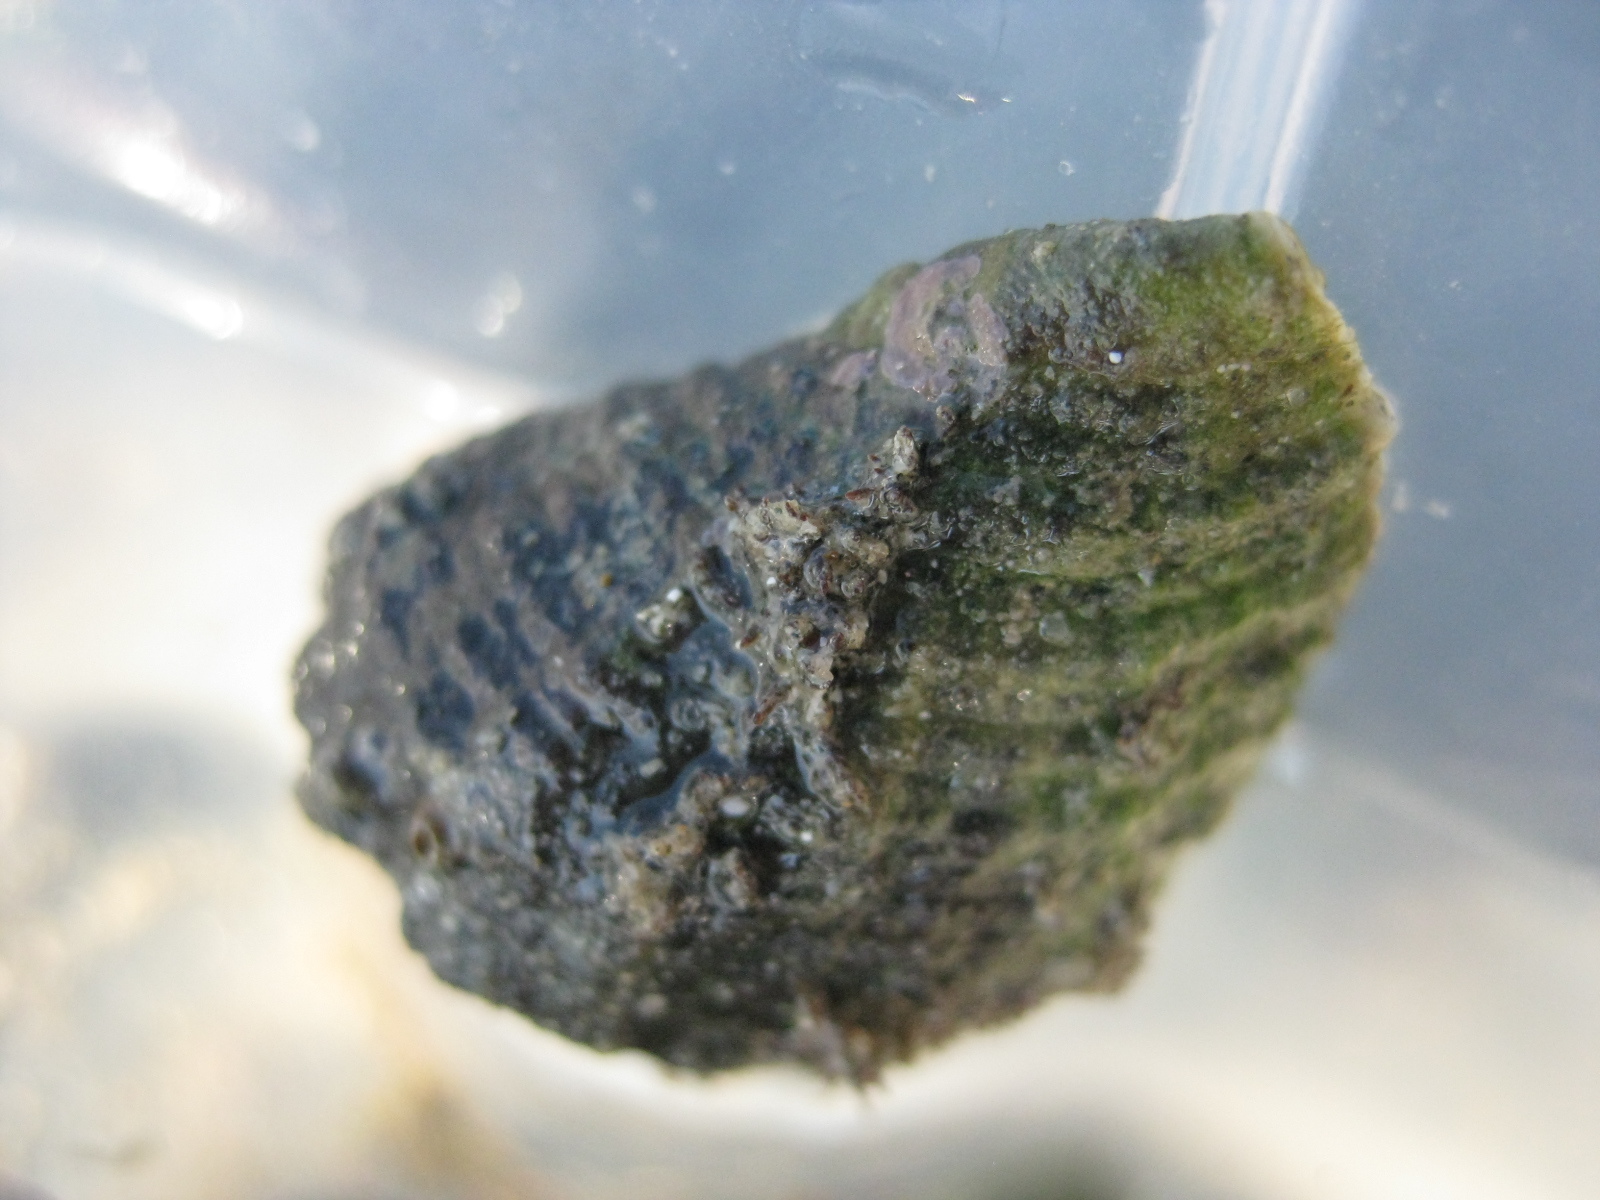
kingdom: Animalia
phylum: Mollusca
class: Gastropoda
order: Neogastropoda
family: Muricidae
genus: Haustrum
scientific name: Haustrum haustorium
